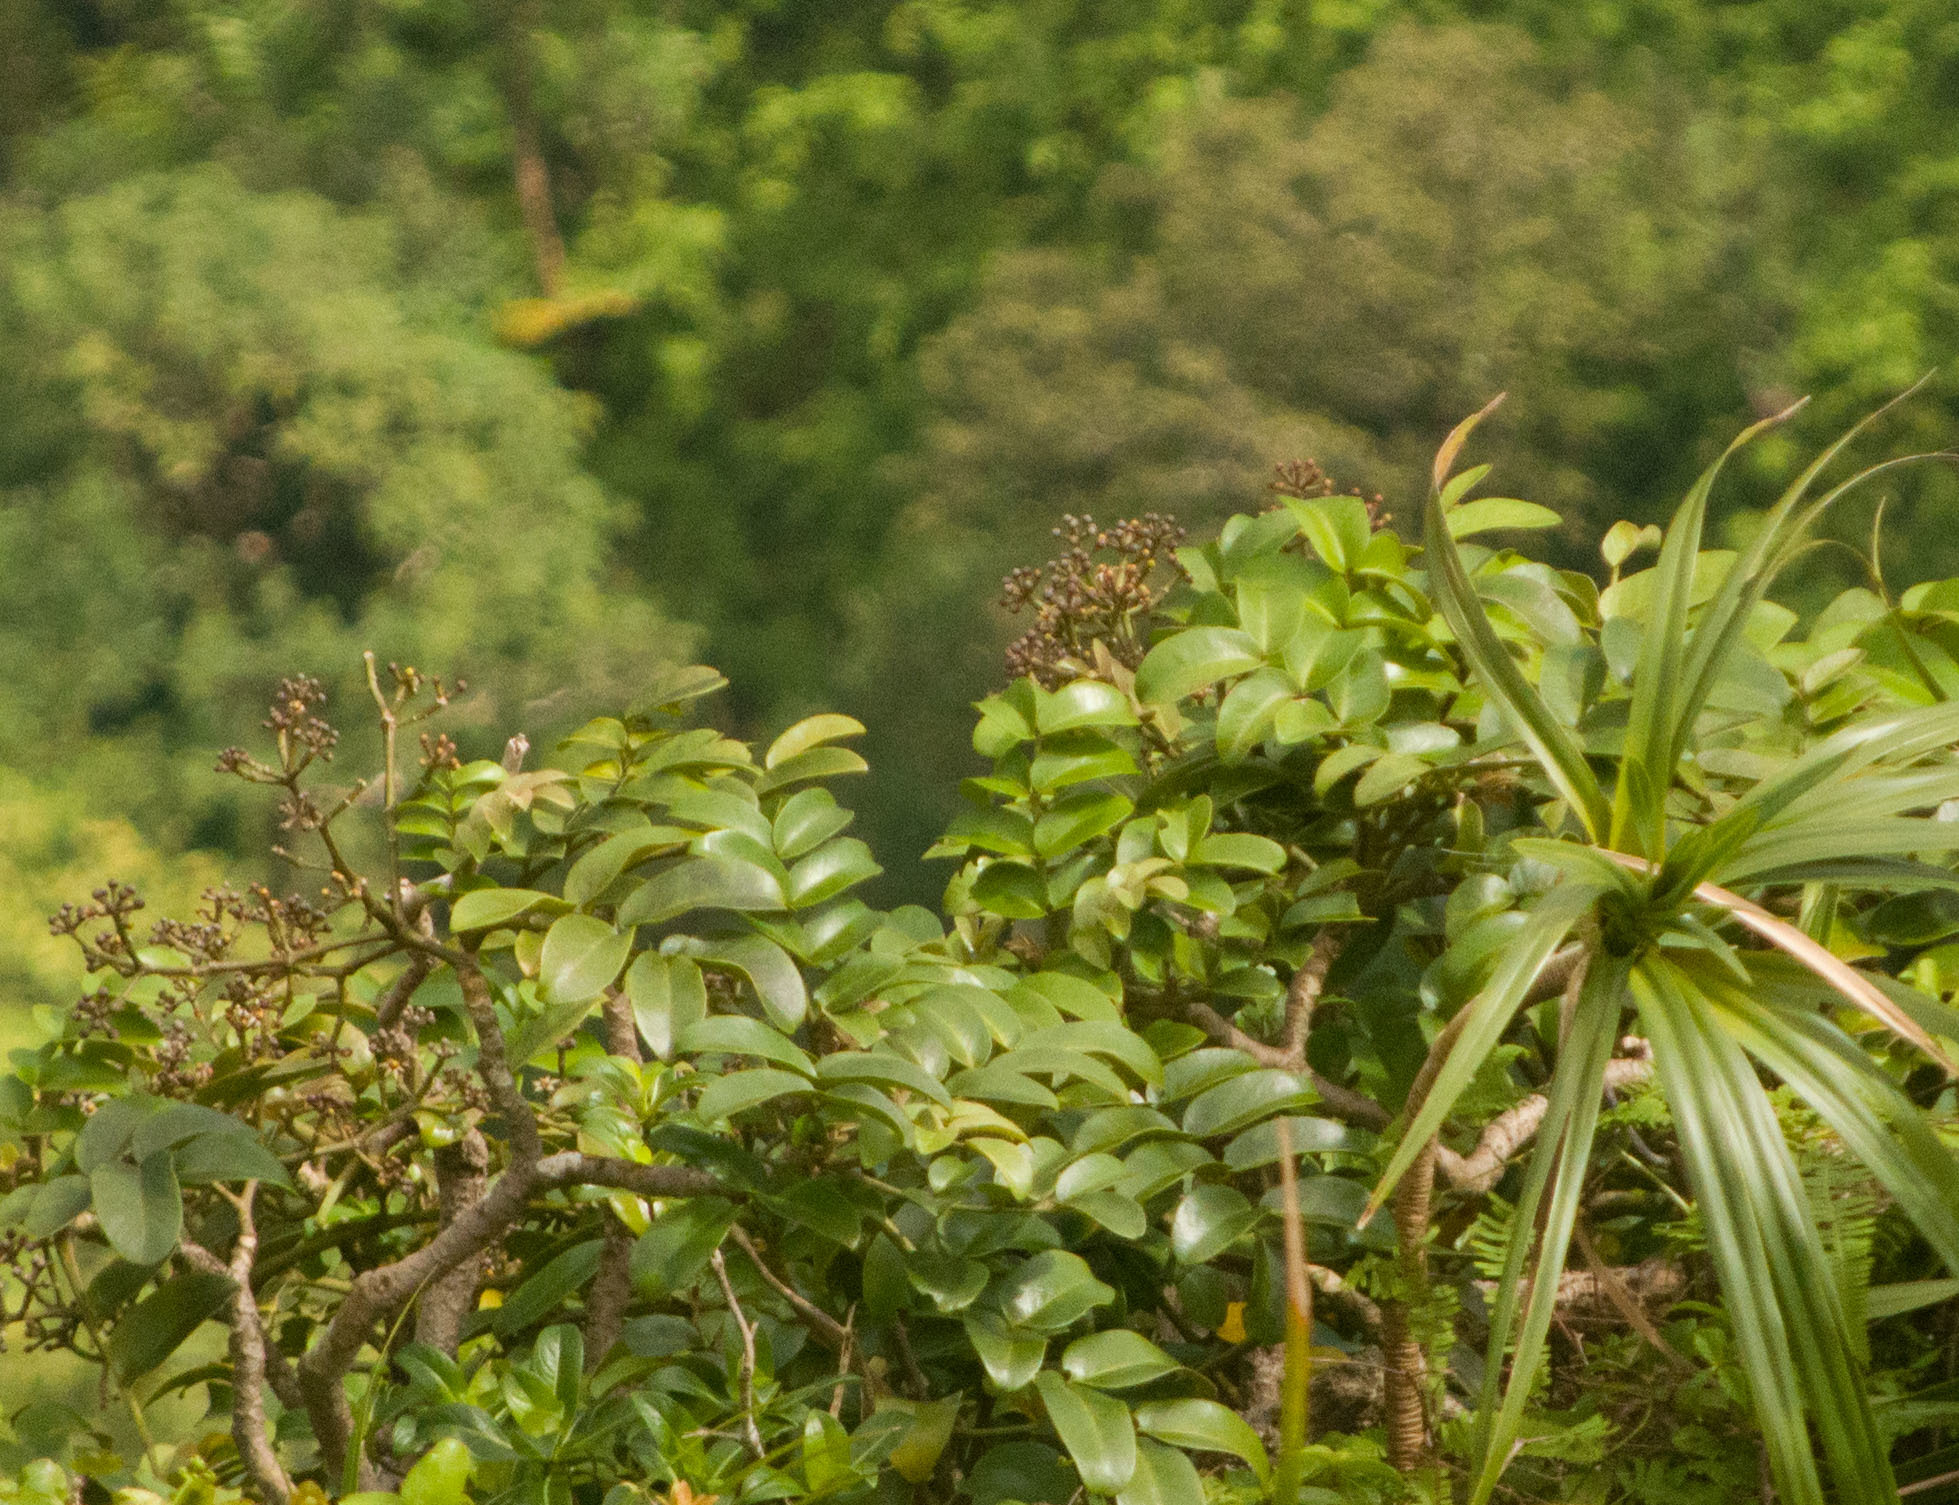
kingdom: Plantae
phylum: Tracheophyta
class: Magnoliopsida
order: Apiales
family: Araliaceae
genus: Polyscias
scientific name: Polyscias oahuensis
